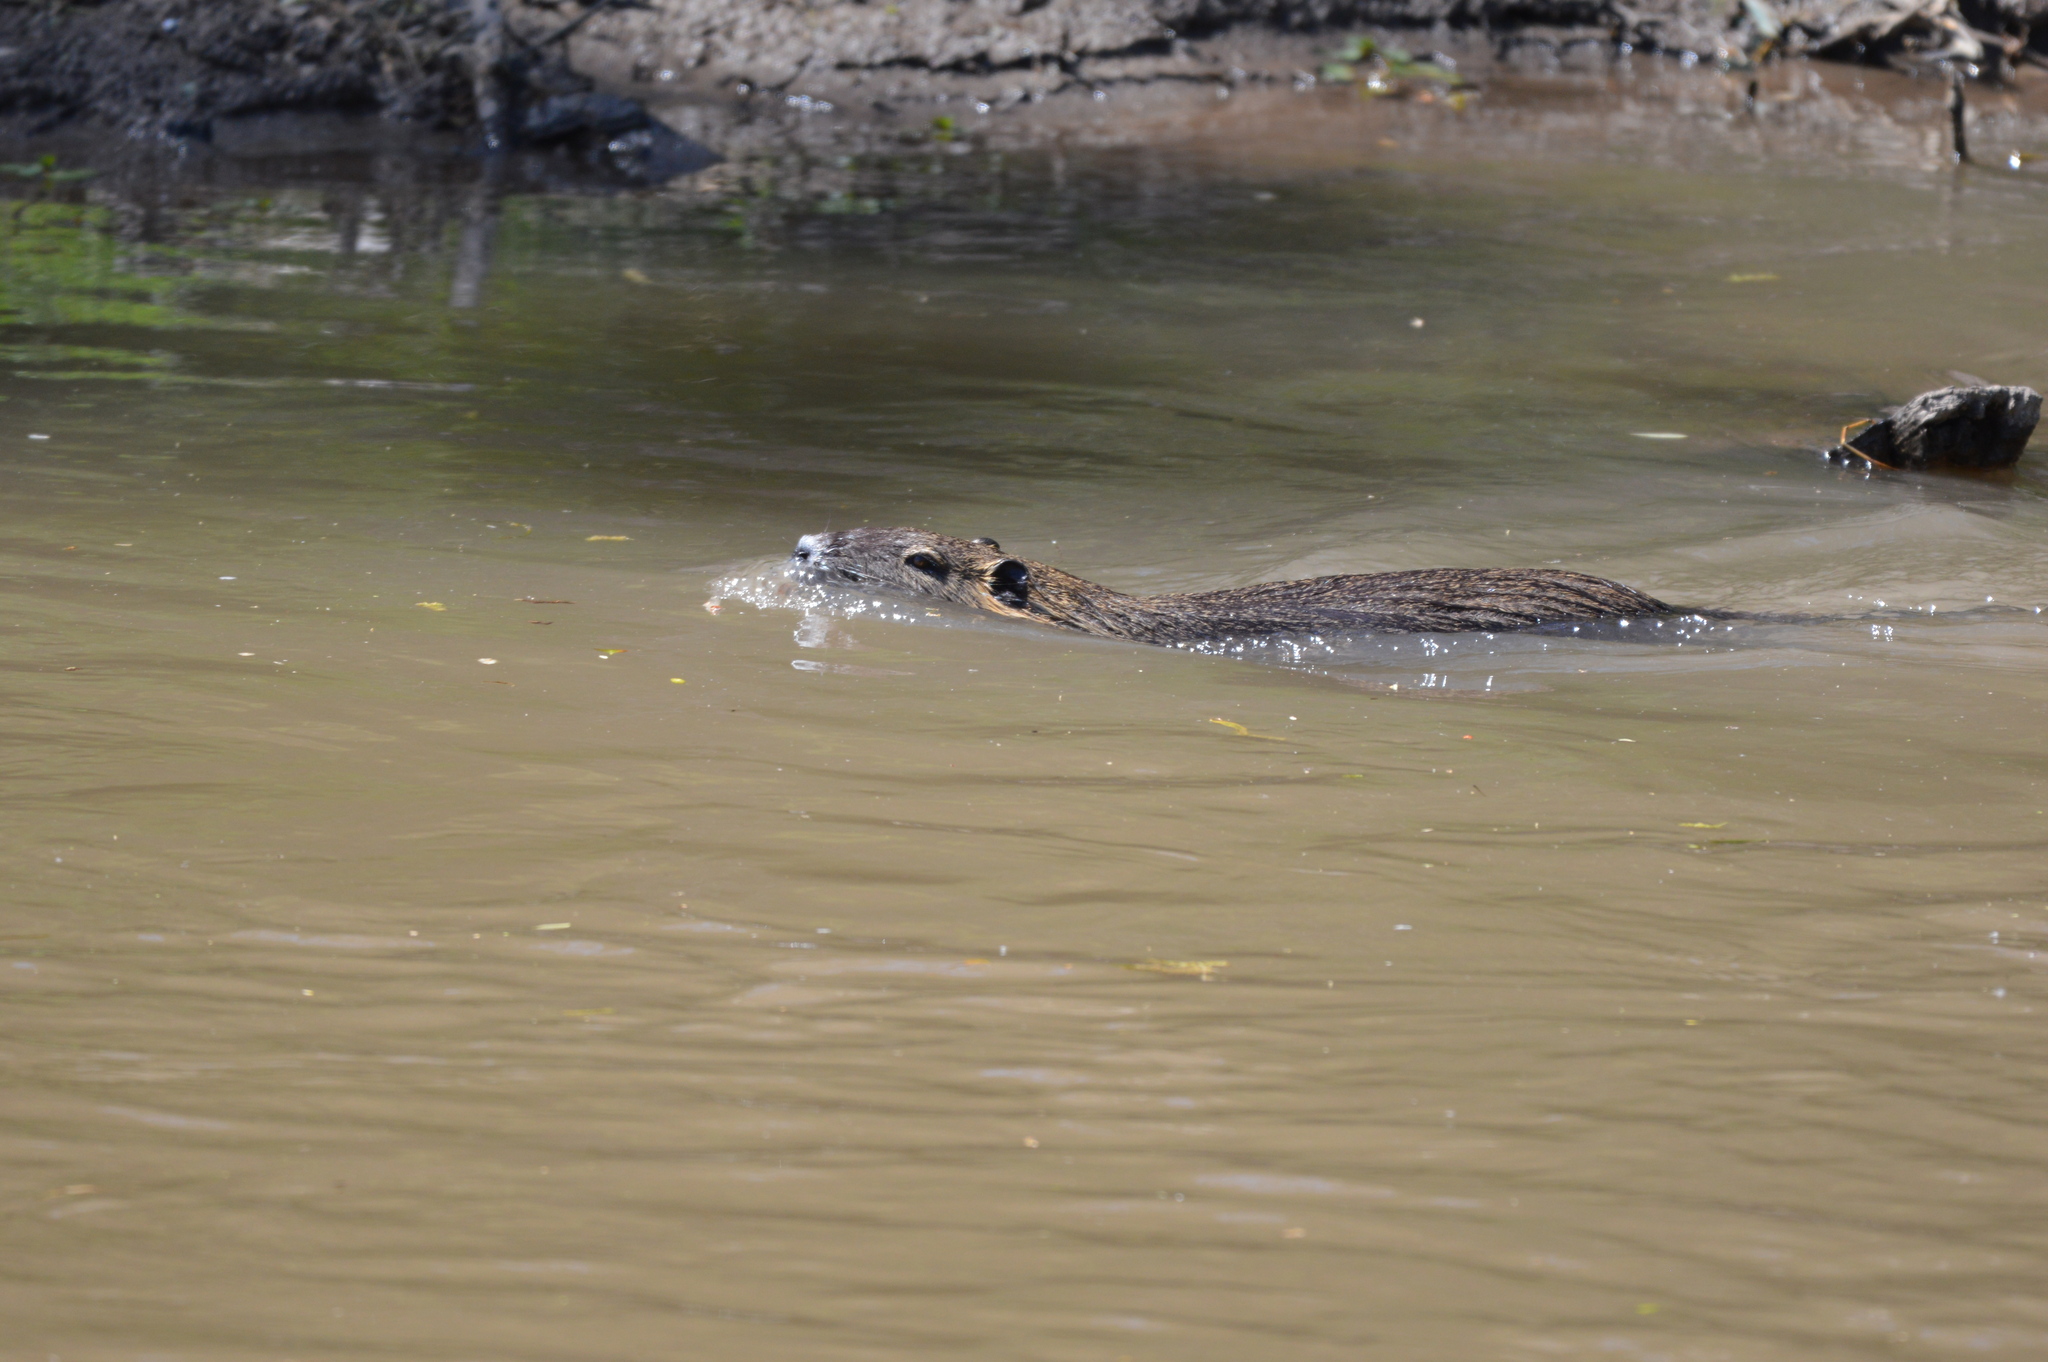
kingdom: Animalia
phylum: Chordata
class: Mammalia
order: Rodentia
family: Myocastoridae
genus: Myocastor
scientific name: Myocastor coypus
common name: Coypu
